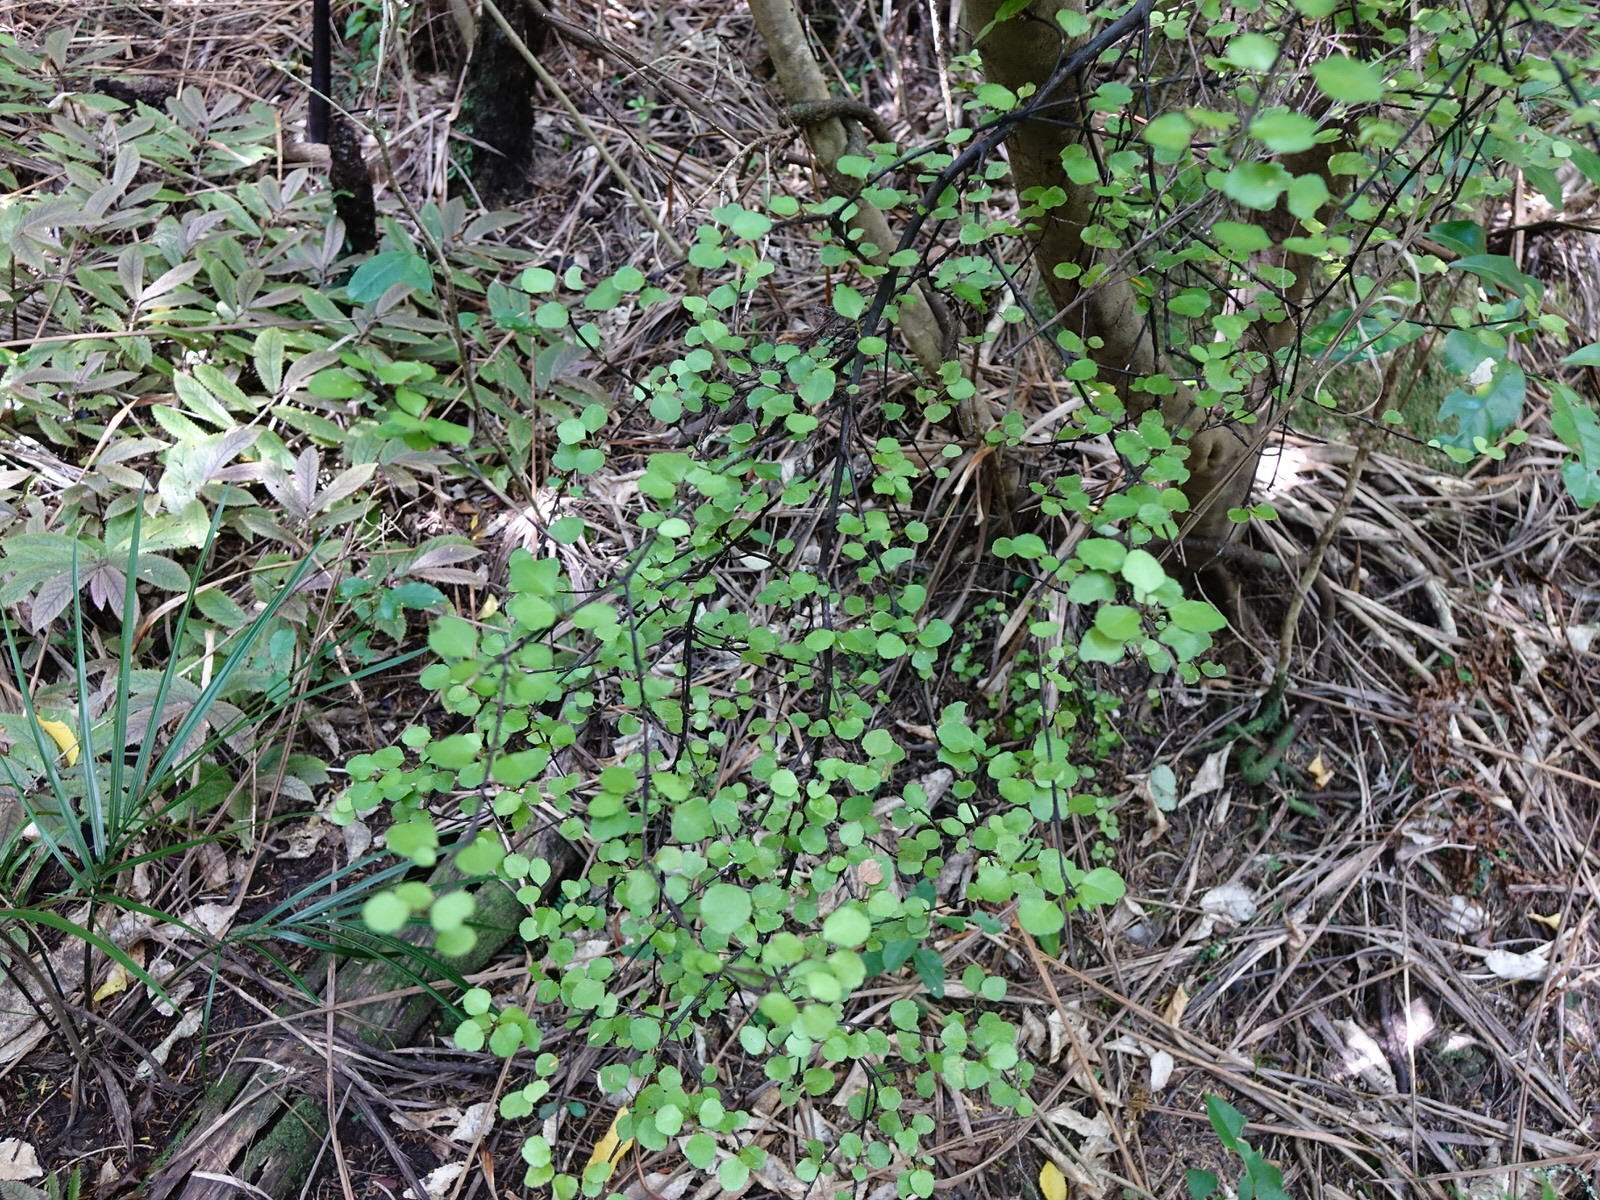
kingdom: Plantae
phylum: Tracheophyta
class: Magnoliopsida
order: Sapindales
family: Rutaceae
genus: Melicope
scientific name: Melicope simplex
